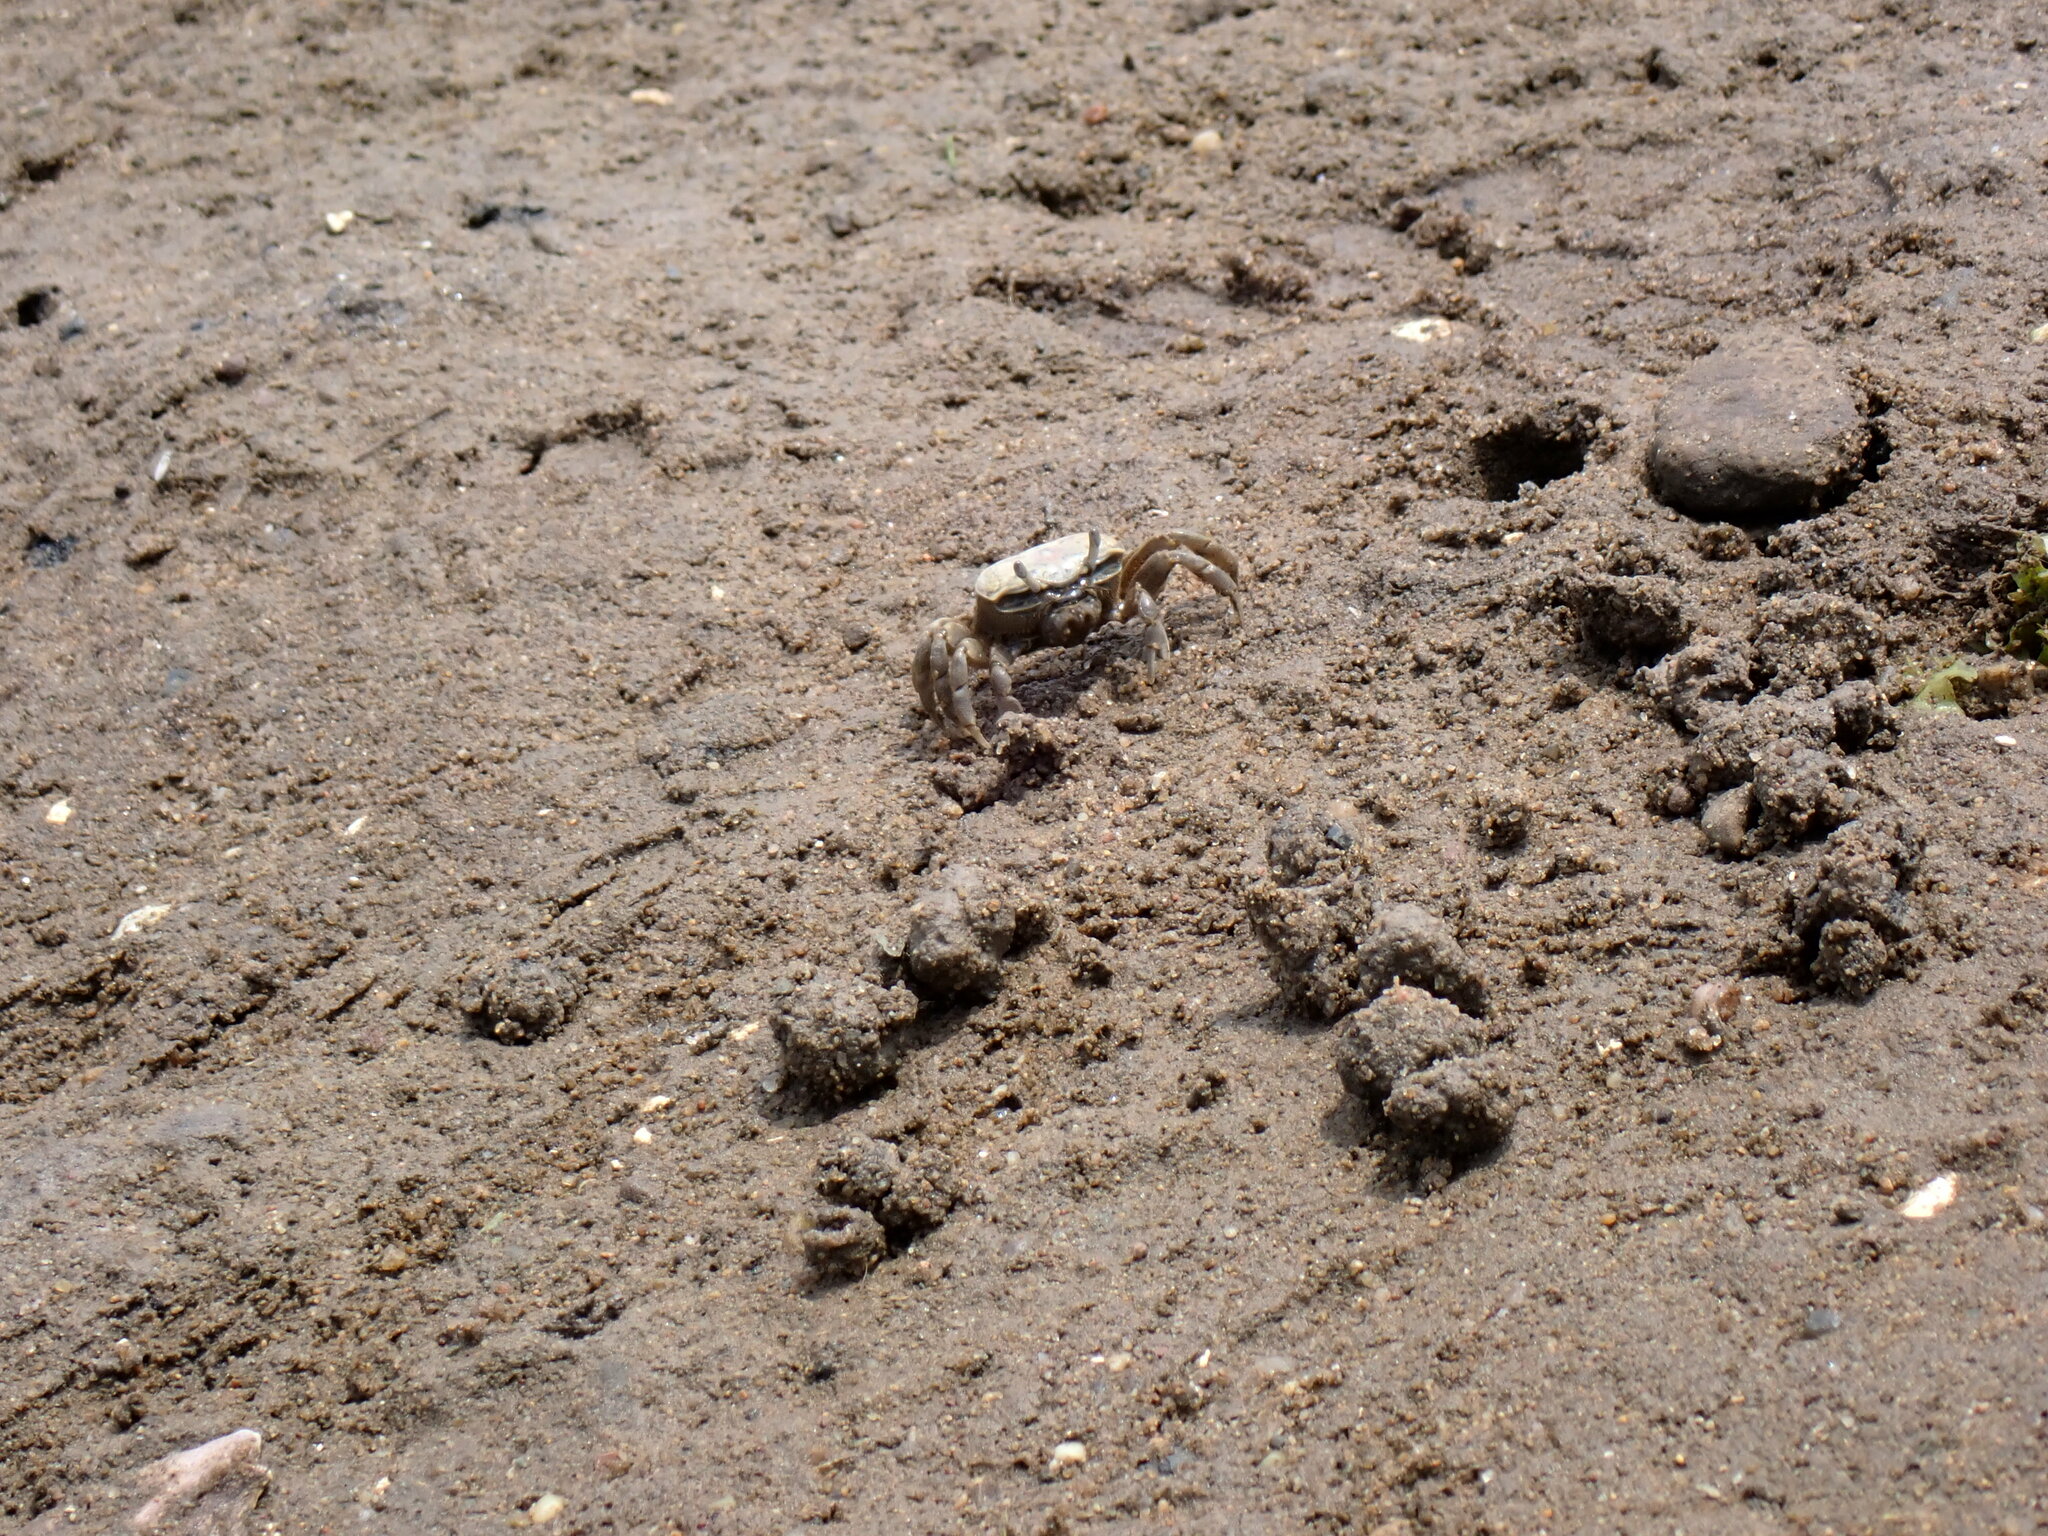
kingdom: Animalia
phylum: Arthropoda
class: Malacostraca
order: Decapoda
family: Ocypodidae
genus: Leptuca
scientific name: Leptuca pugilator
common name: Atlantic sand fiddler crab
